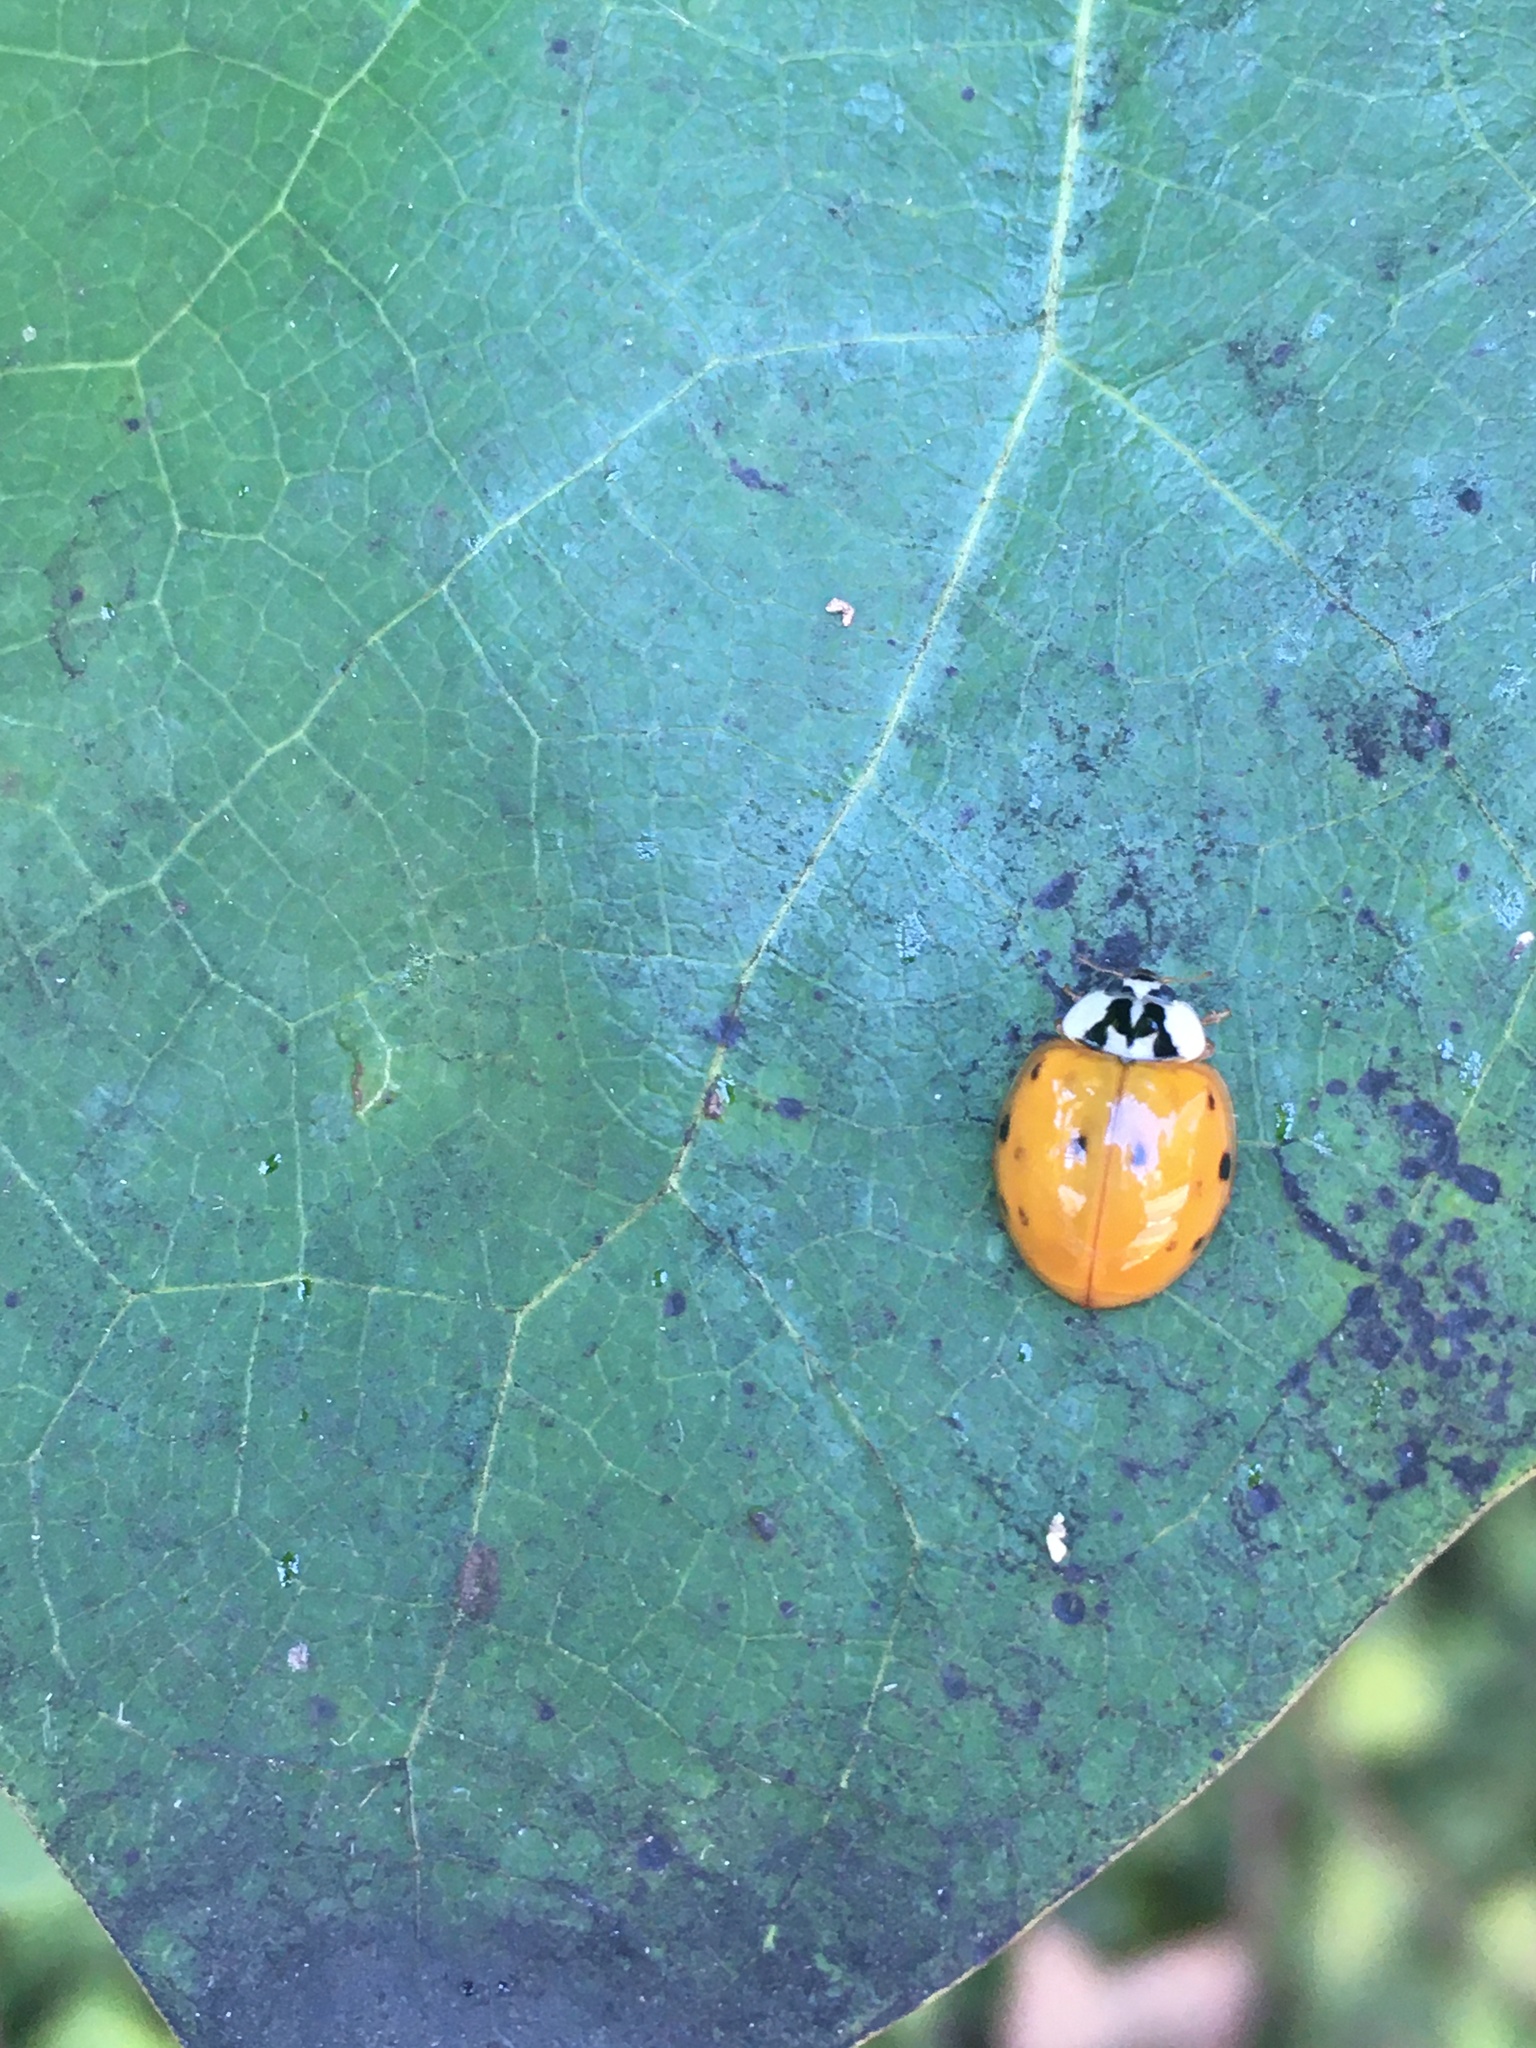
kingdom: Animalia
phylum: Arthropoda
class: Insecta
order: Coleoptera
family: Coccinellidae
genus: Harmonia
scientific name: Harmonia axyridis
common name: Harlequin ladybird
